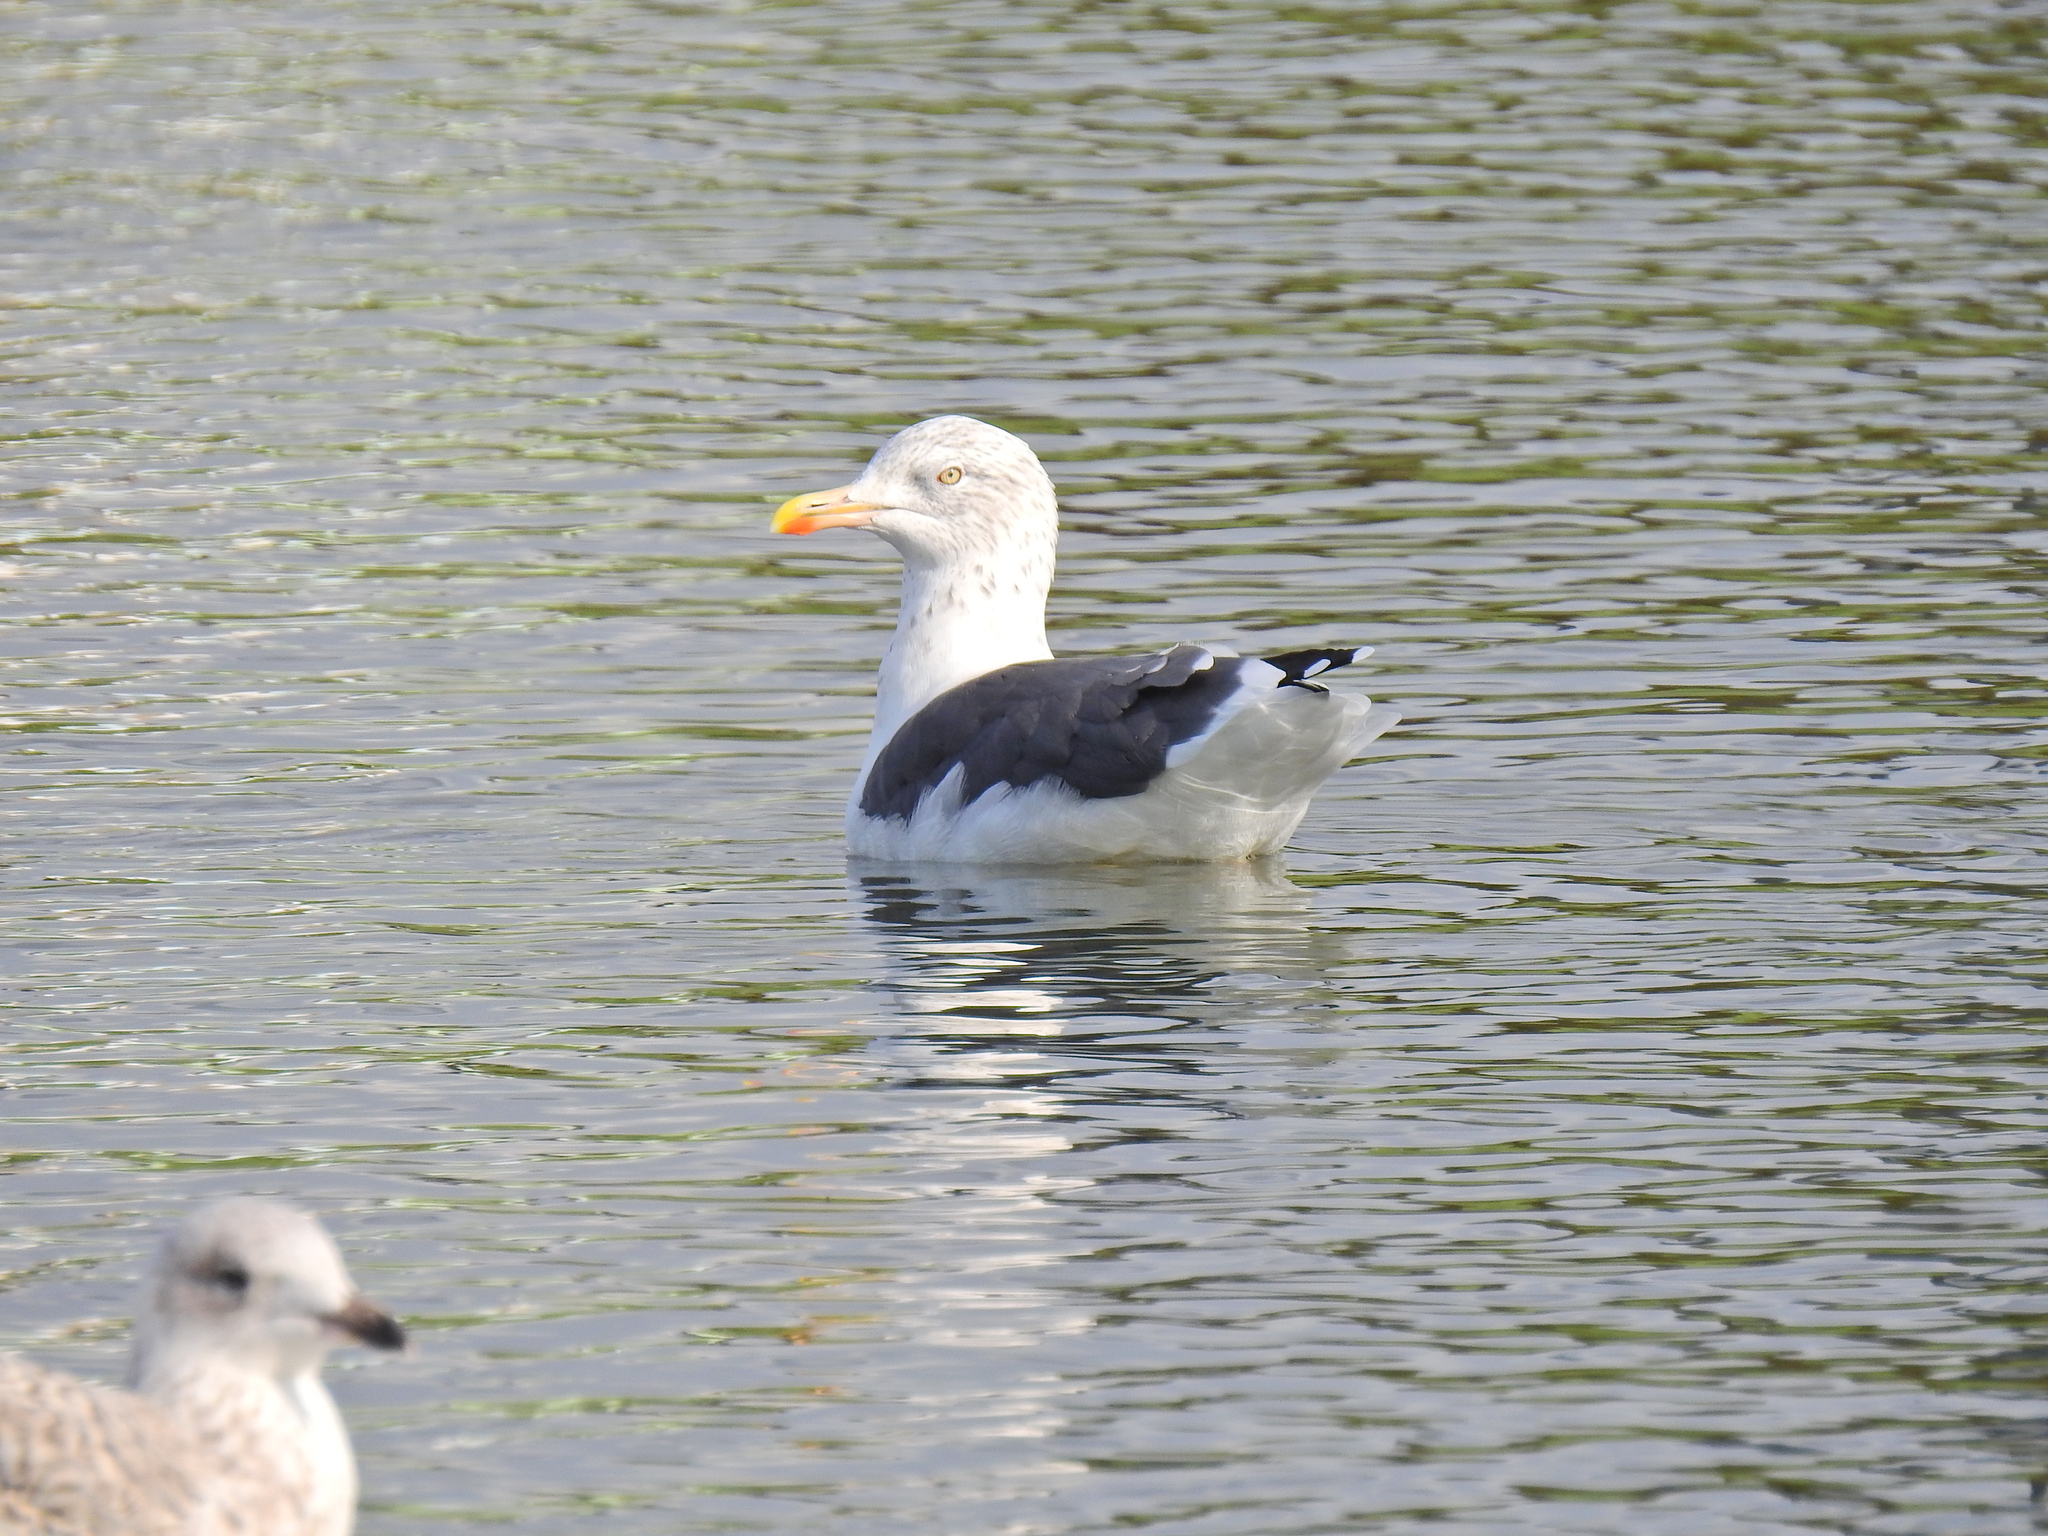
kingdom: Animalia
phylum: Chordata
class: Aves
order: Charadriiformes
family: Laridae
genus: Larus
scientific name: Larus fuscus
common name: Lesser black-backed gull
